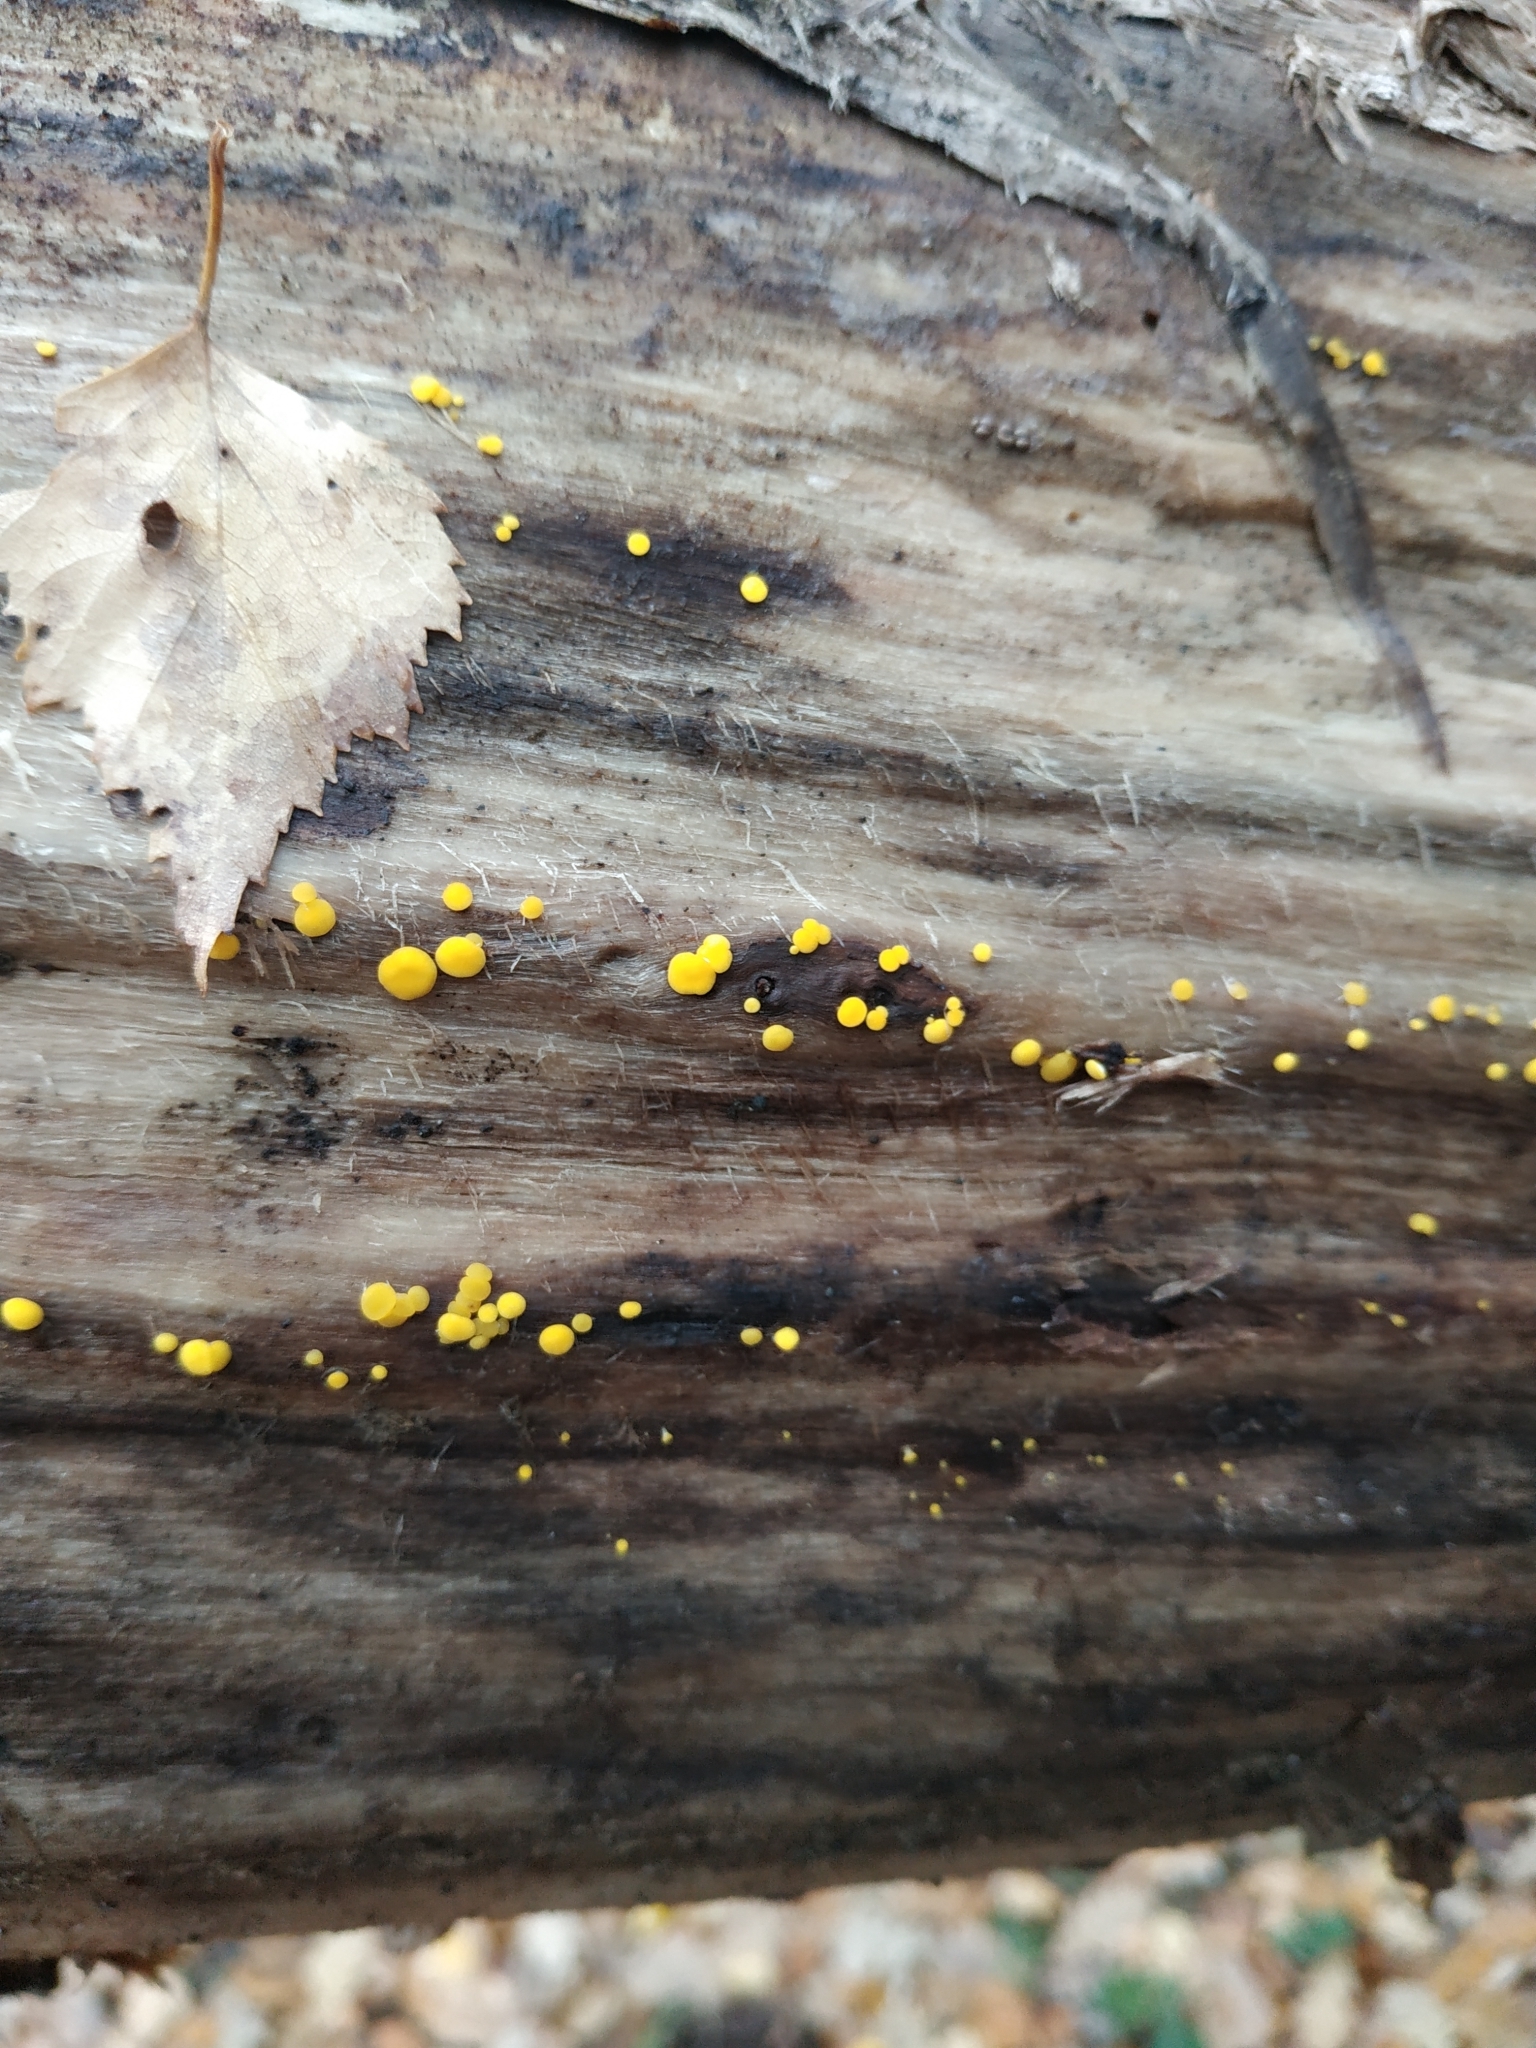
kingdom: Fungi
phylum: Ascomycota
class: Leotiomycetes
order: Helotiales
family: Pezizellaceae
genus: Calycina
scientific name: Calycina citrina
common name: Yellow fairy cups
